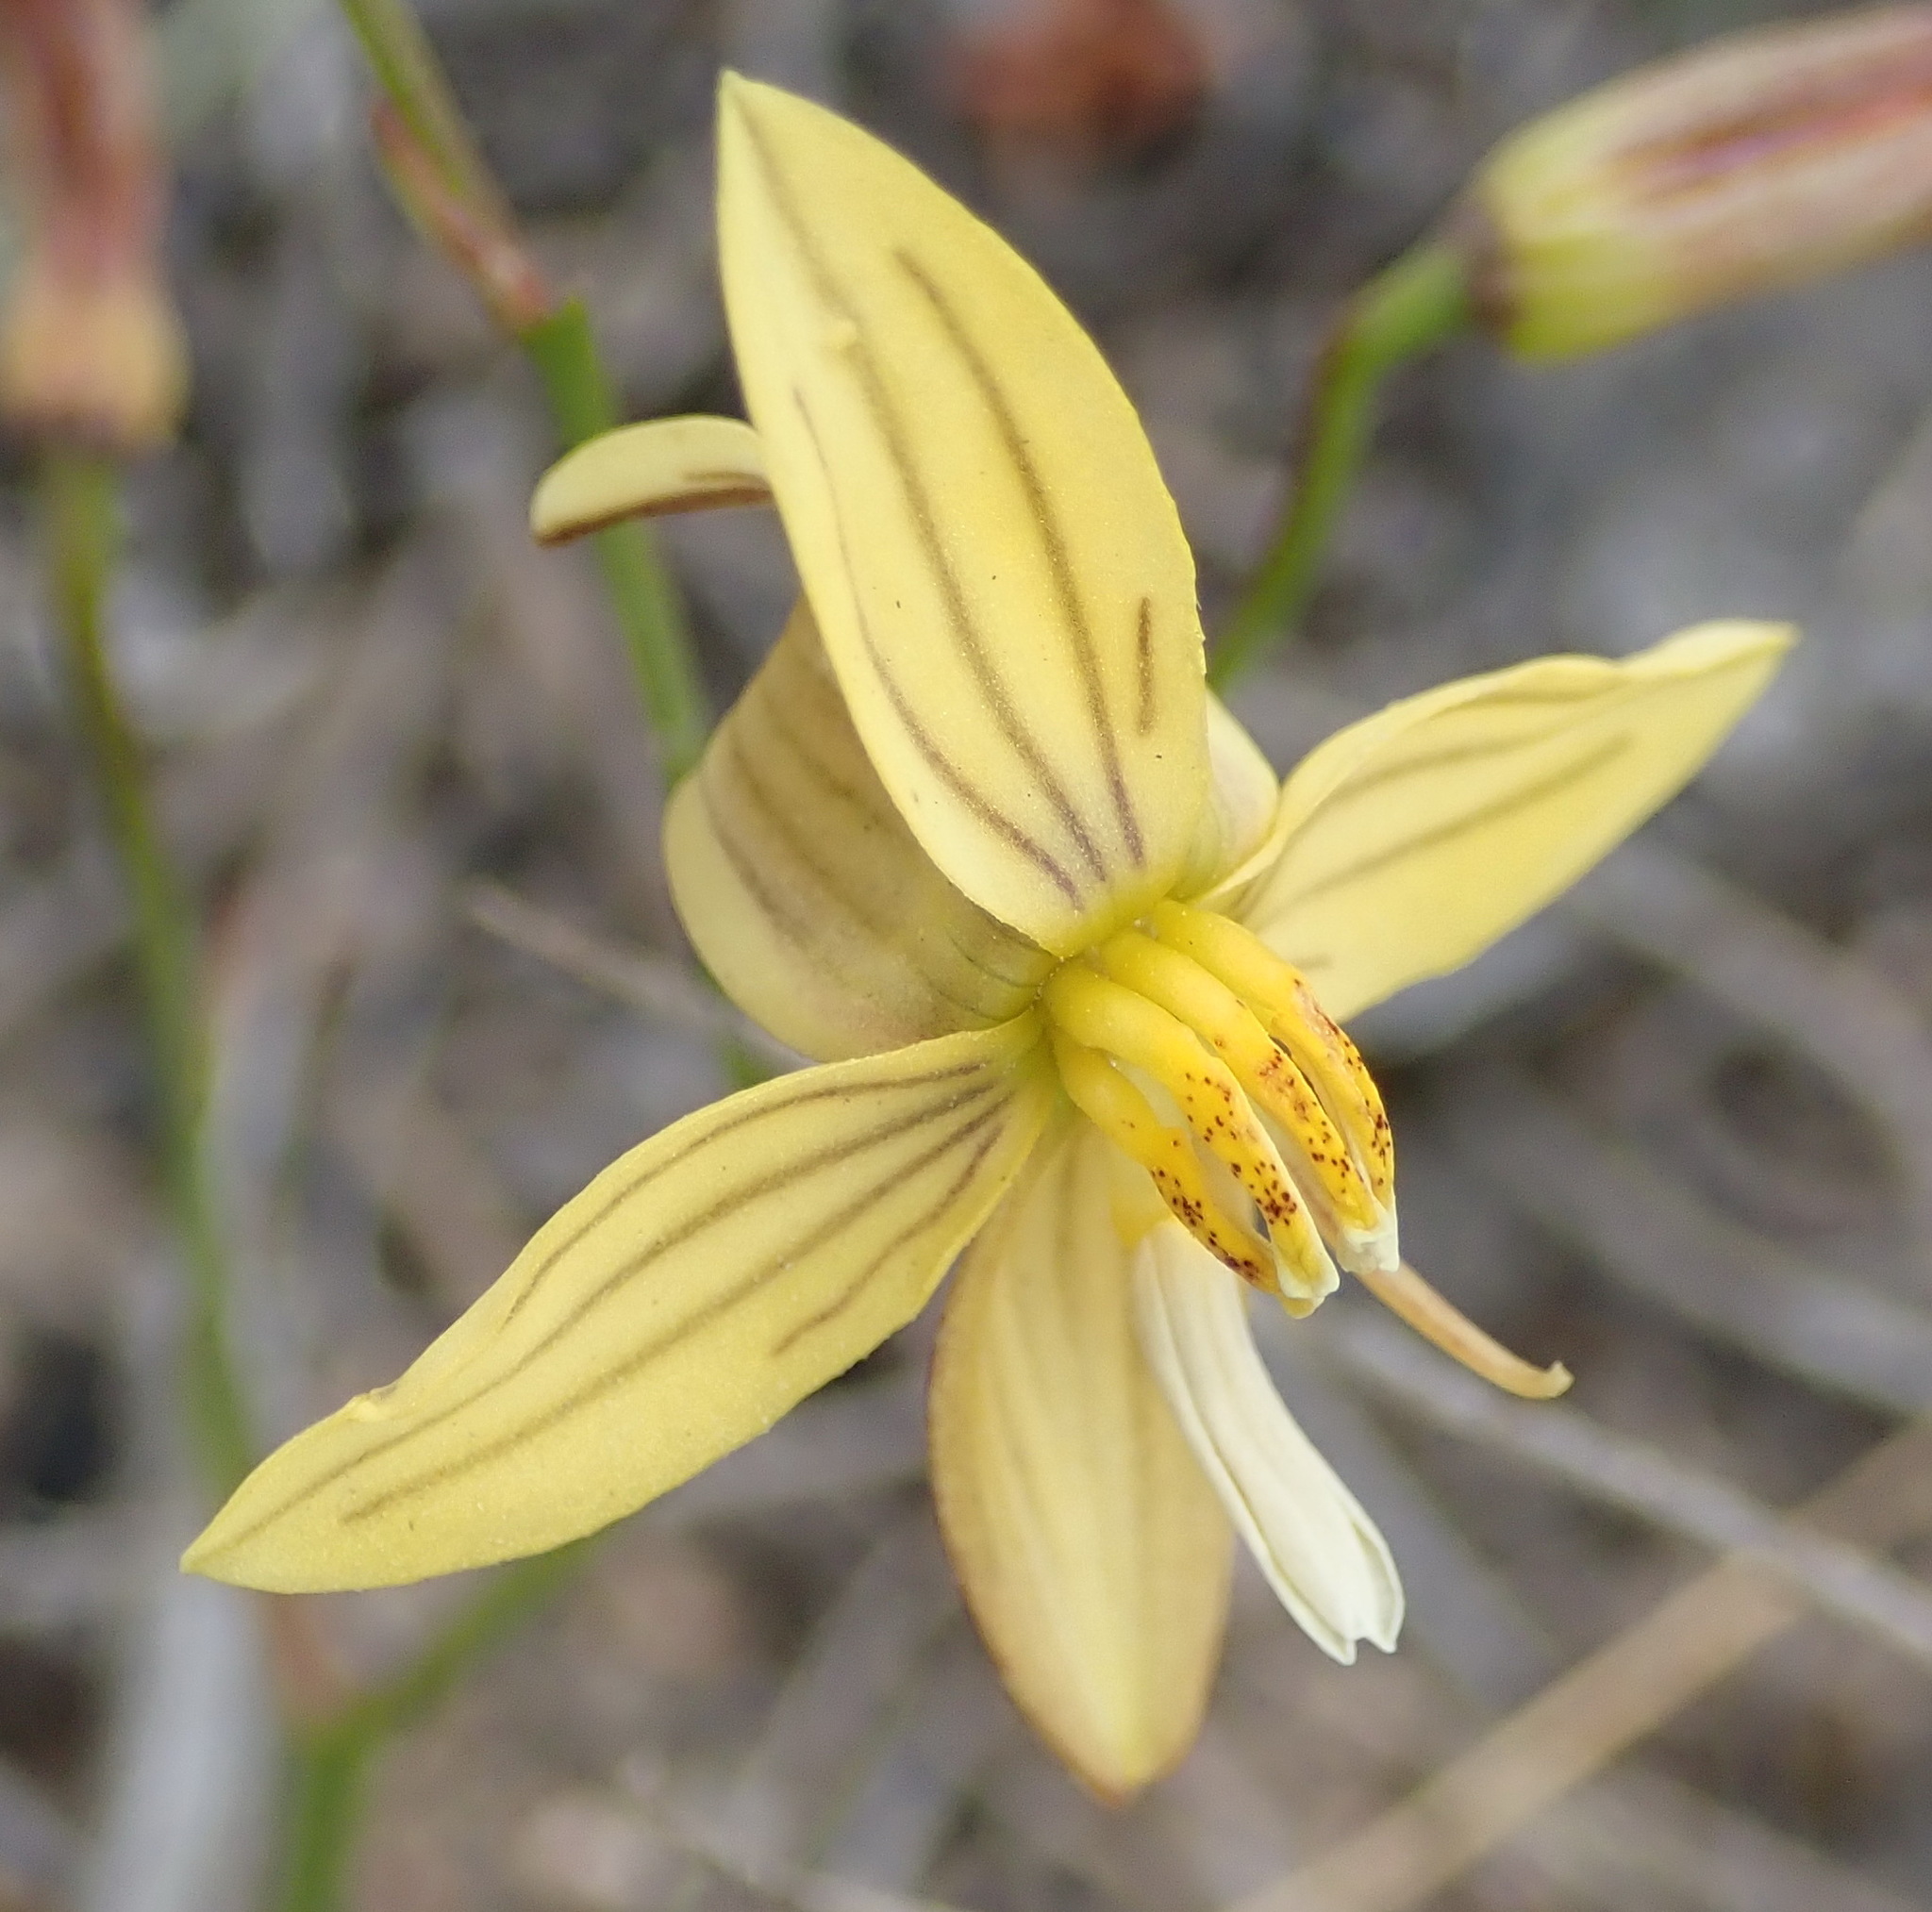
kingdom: Plantae
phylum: Tracheophyta
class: Liliopsida
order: Asparagales
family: Tecophilaeaceae
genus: Cyanella
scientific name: Cyanella lutea
